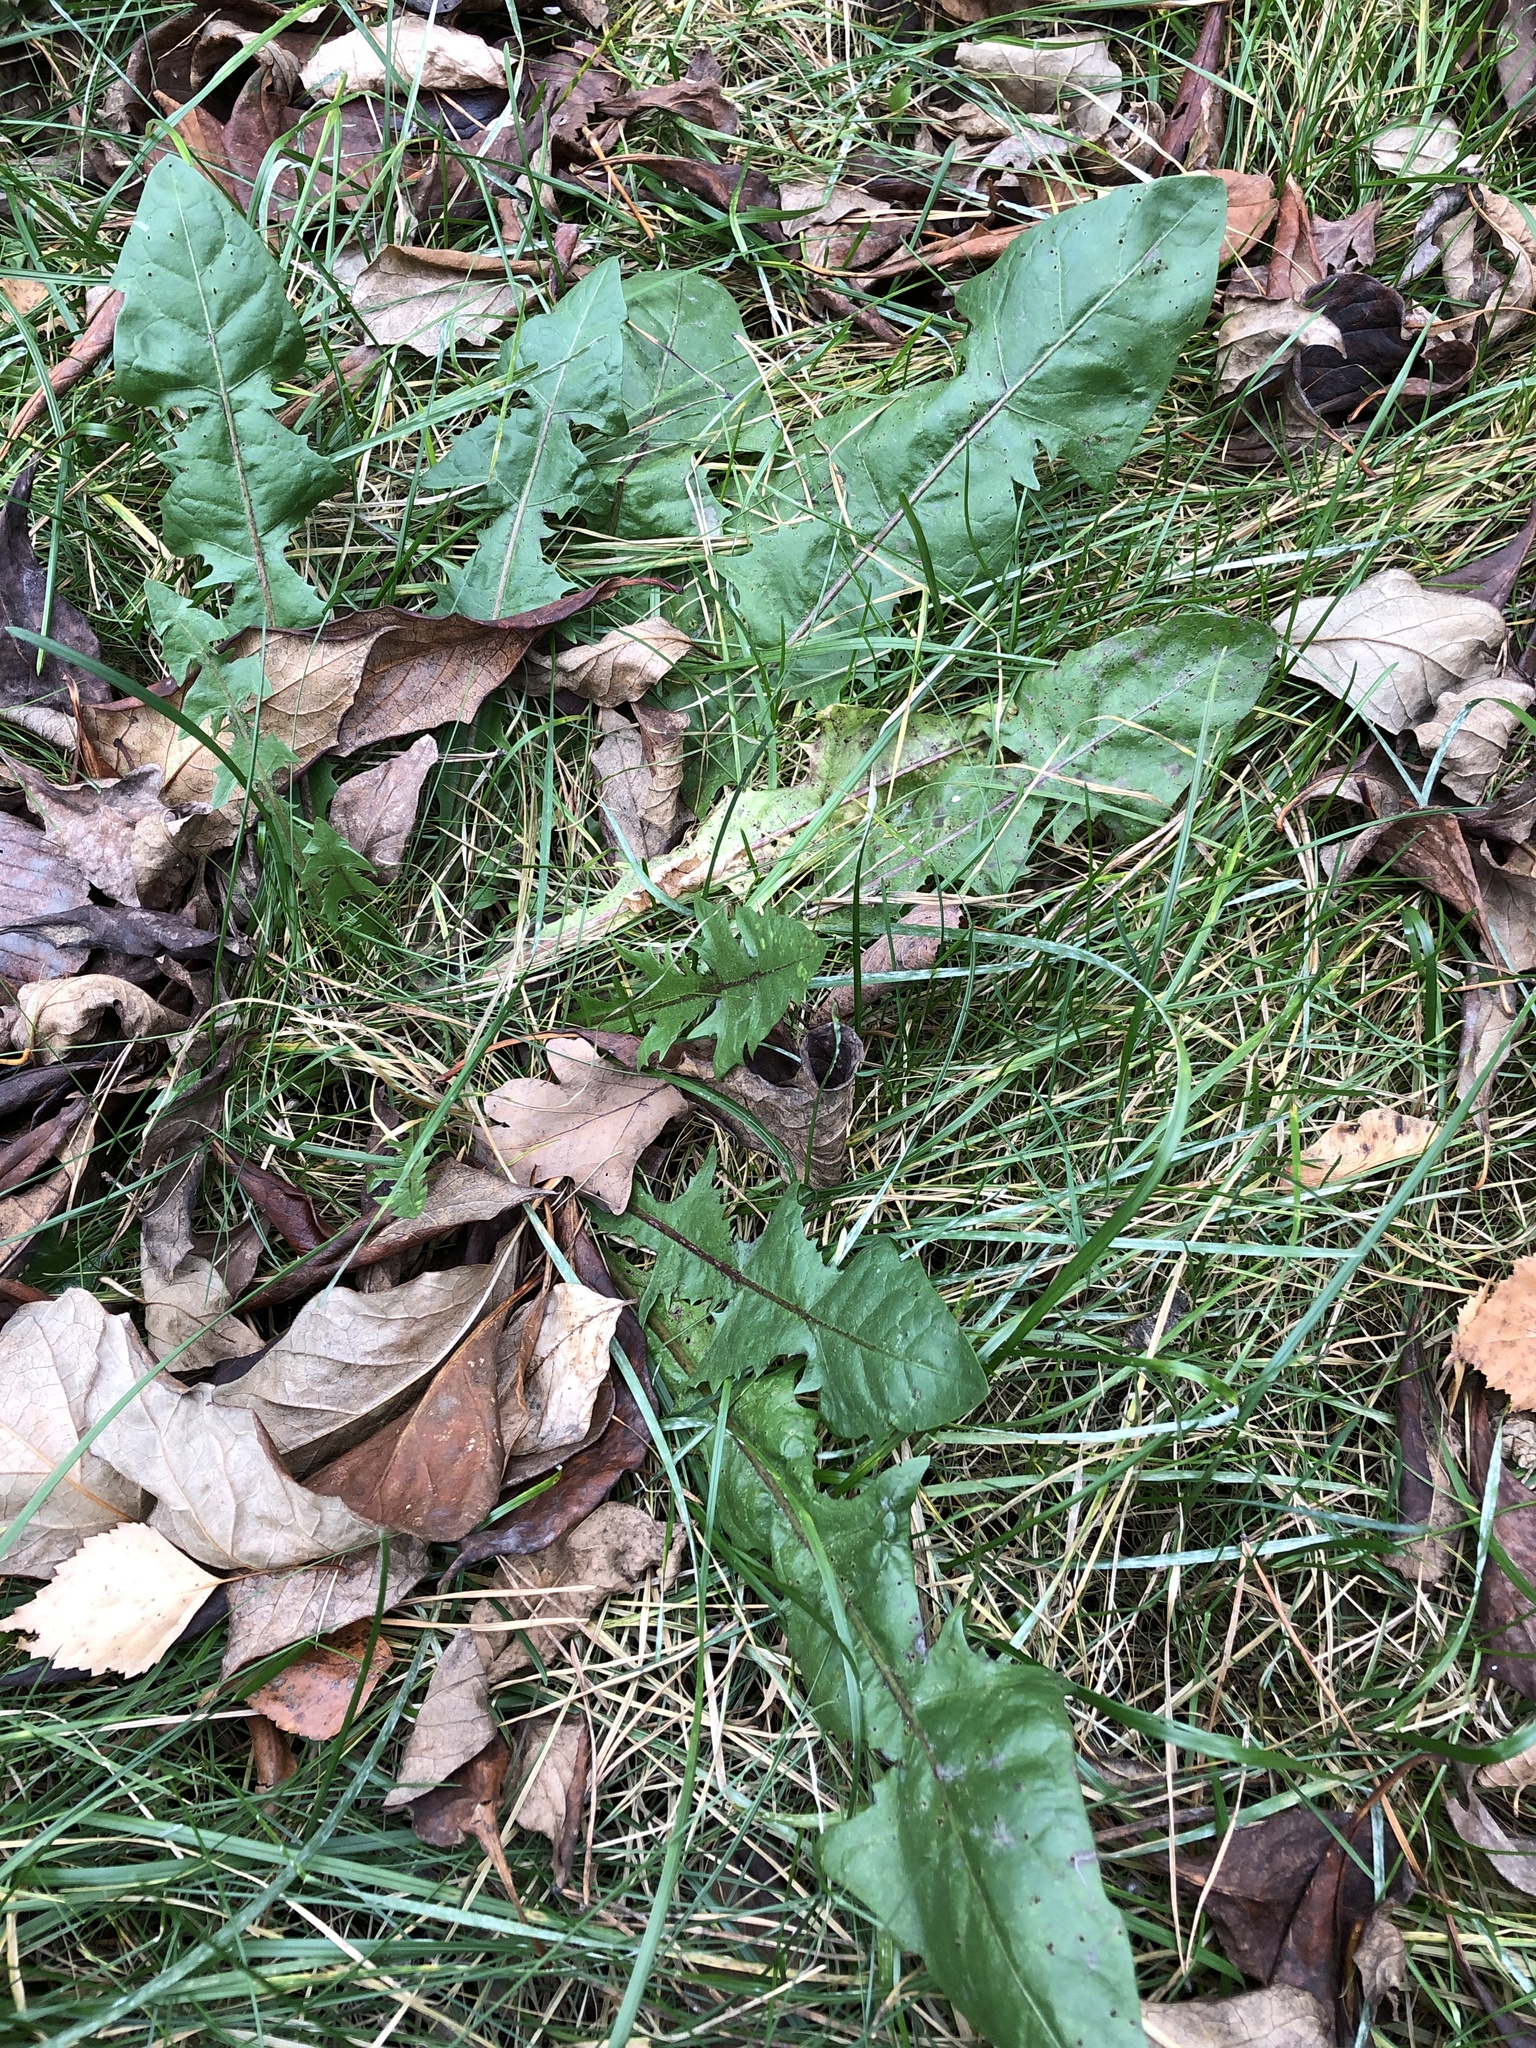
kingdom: Plantae
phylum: Tracheophyta
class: Magnoliopsida
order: Asterales
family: Asteraceae
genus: Taraxacum
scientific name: Taraxacum officinale
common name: Common dandelion
